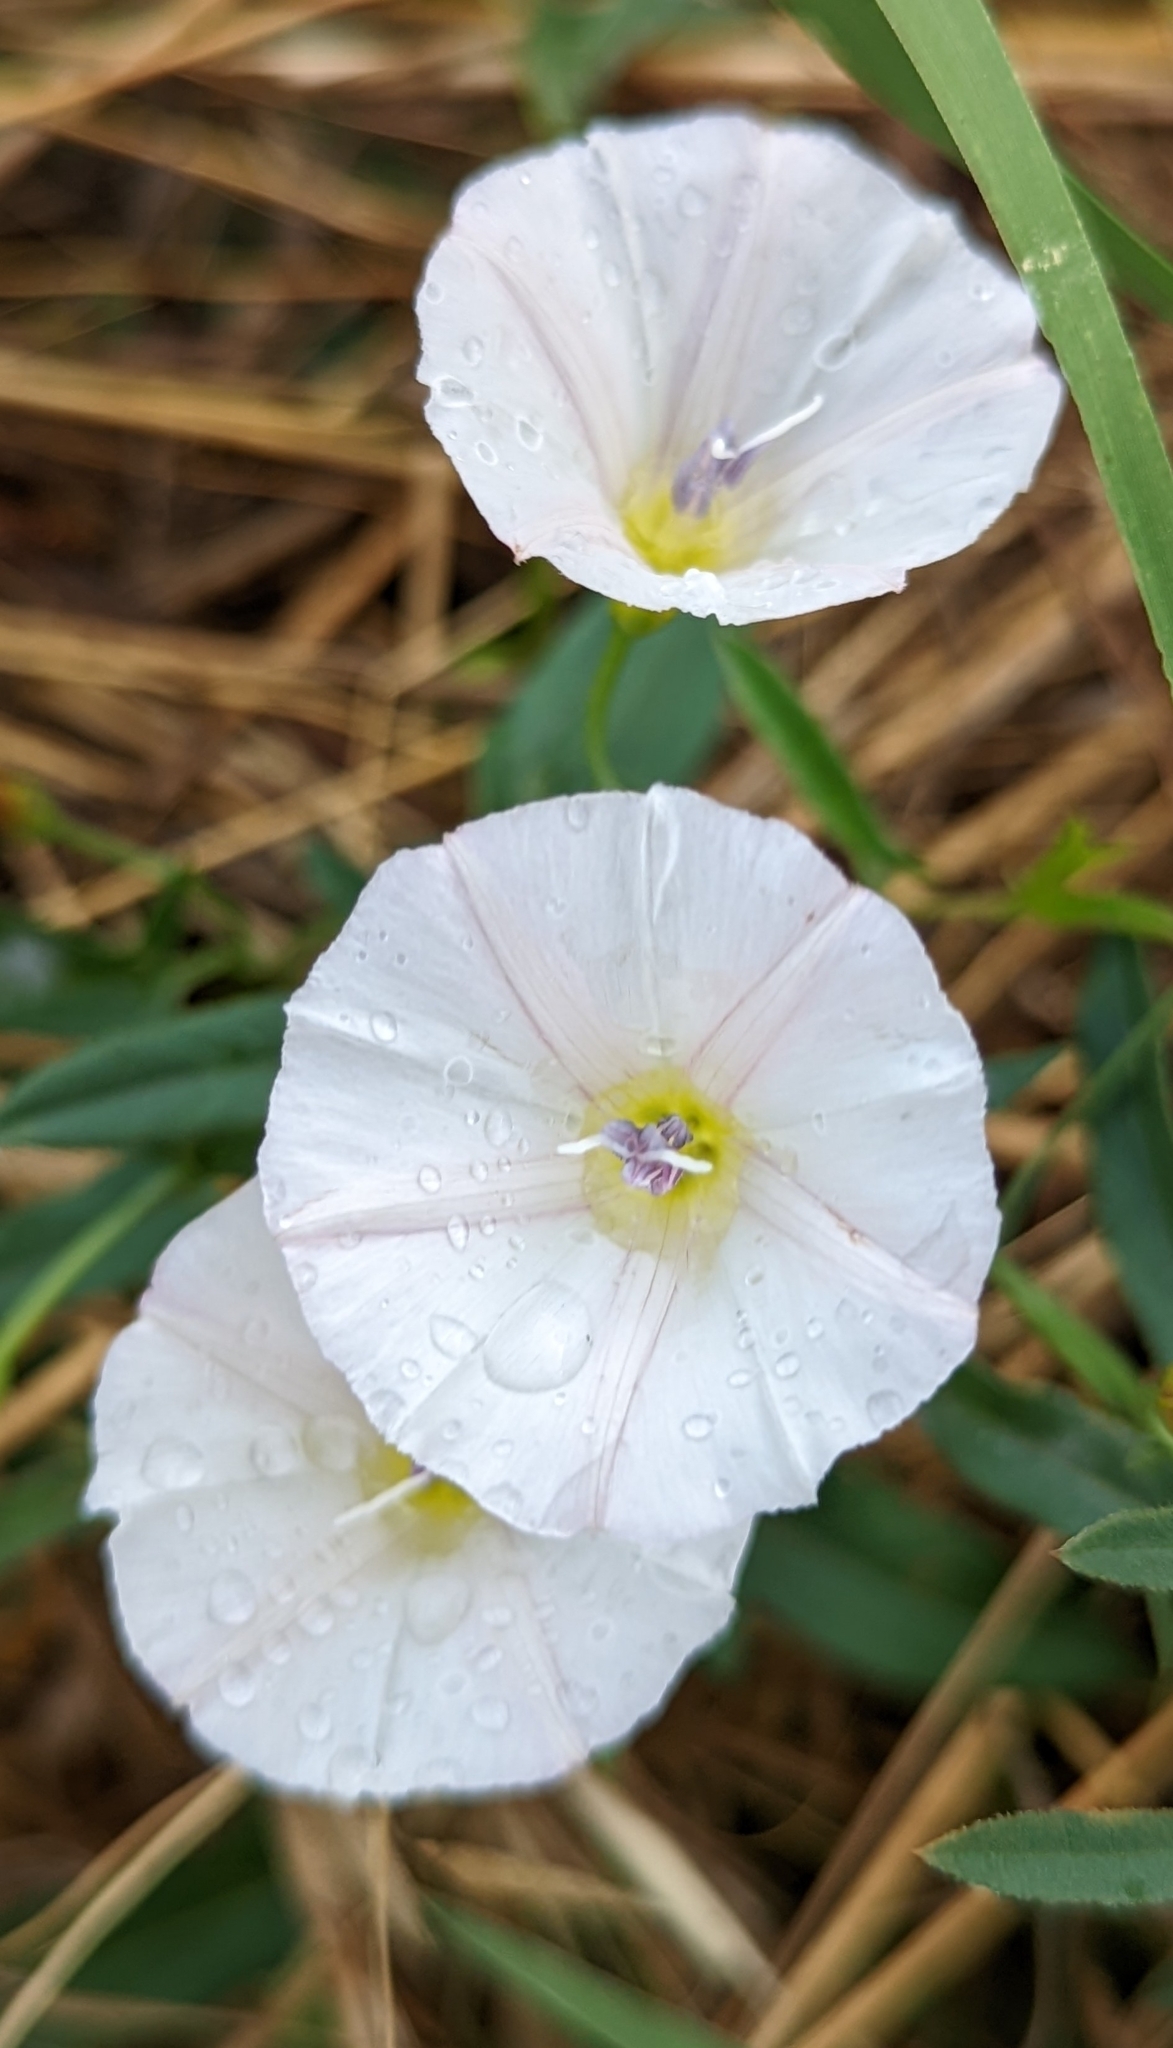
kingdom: Plantae
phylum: Tracheophyta
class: Magnoliopsida
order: Solanales
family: Convolvulaceae
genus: Convolvulus
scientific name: Convolvulus arvensis
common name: Field bindweed
